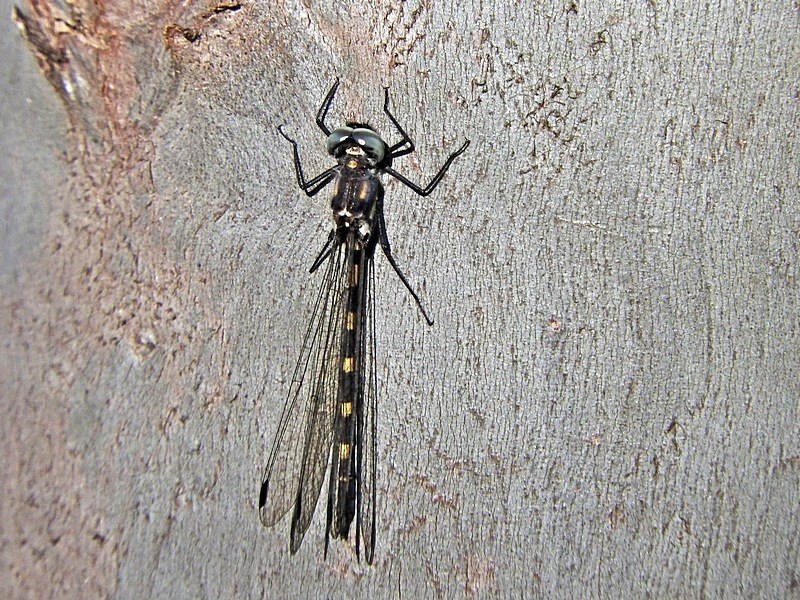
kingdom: Animalia
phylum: Arthropoda
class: Insecta
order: Odonata
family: Corduliidae
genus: Cordulephya
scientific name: Cordulephya pygmaea
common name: Common shutwing
